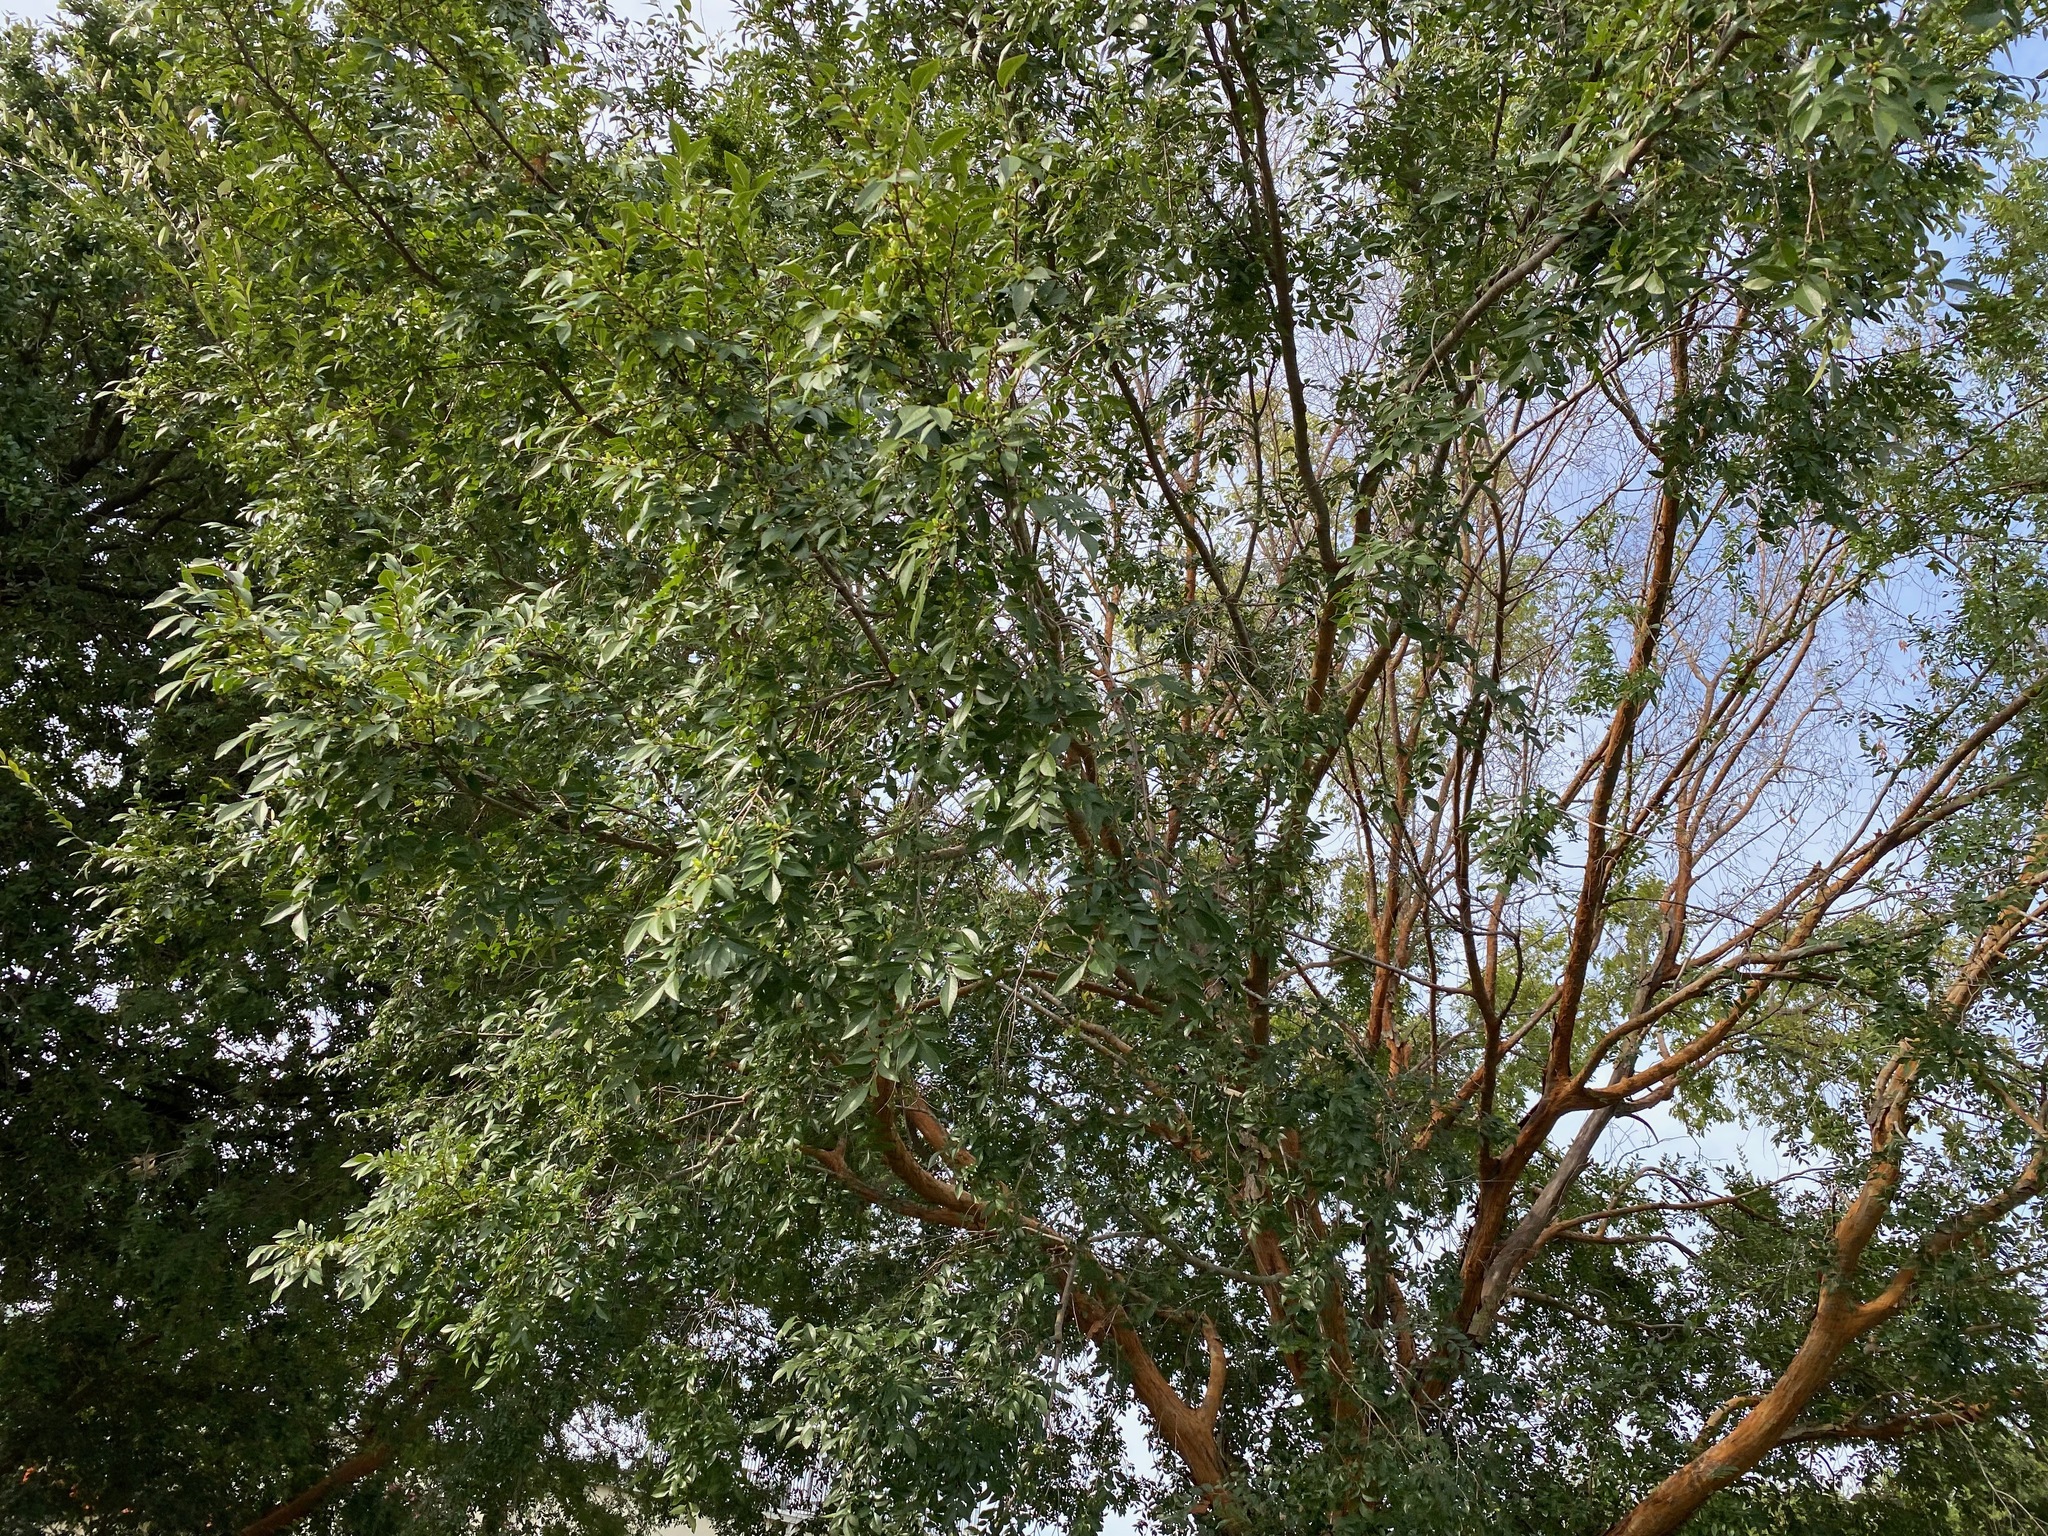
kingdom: Plantae
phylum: Tracheophyta
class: Magnoliopsida
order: Rosales
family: Ulmaceae
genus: Ulmus
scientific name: Ulmus parvifolia
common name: Chinese elm
